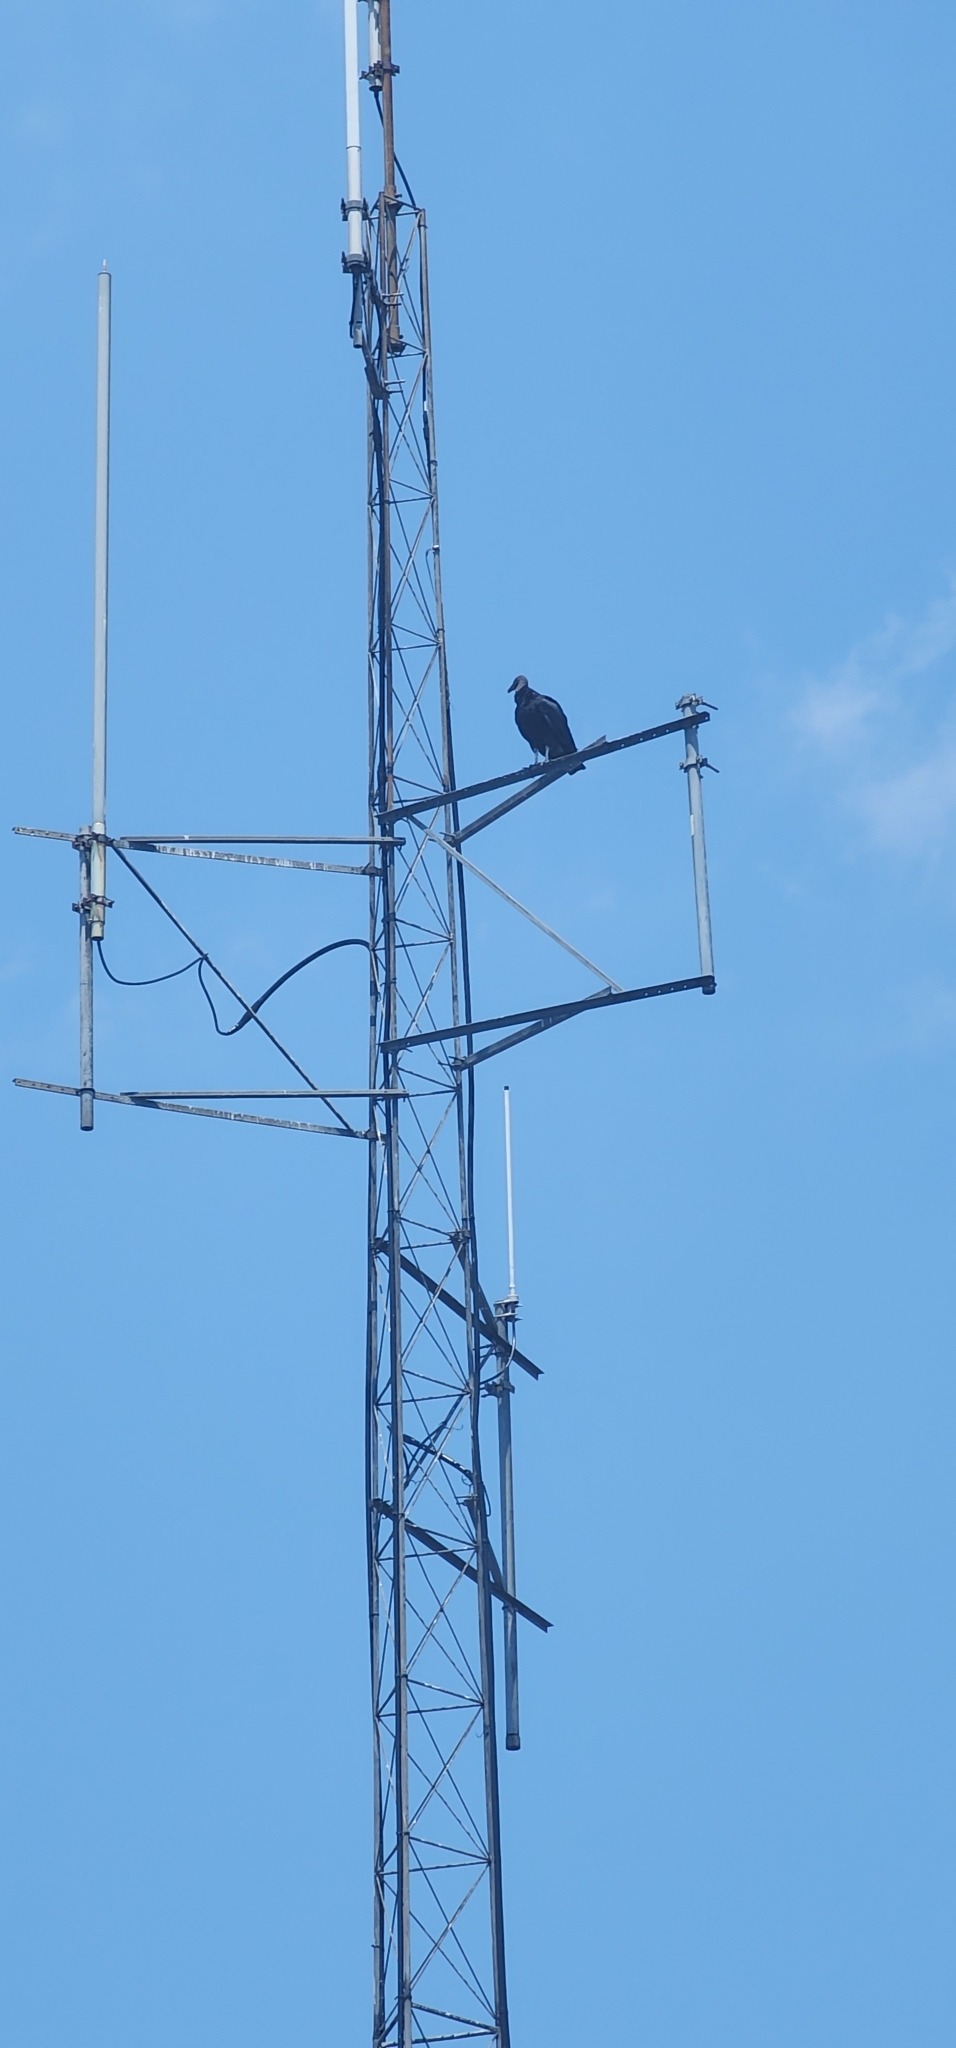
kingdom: Animalia
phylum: Chordata
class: Aves
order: Accipitriformes
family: Cathartidae
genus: Coragyps
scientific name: Coragyps atratus
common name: Black vulture
